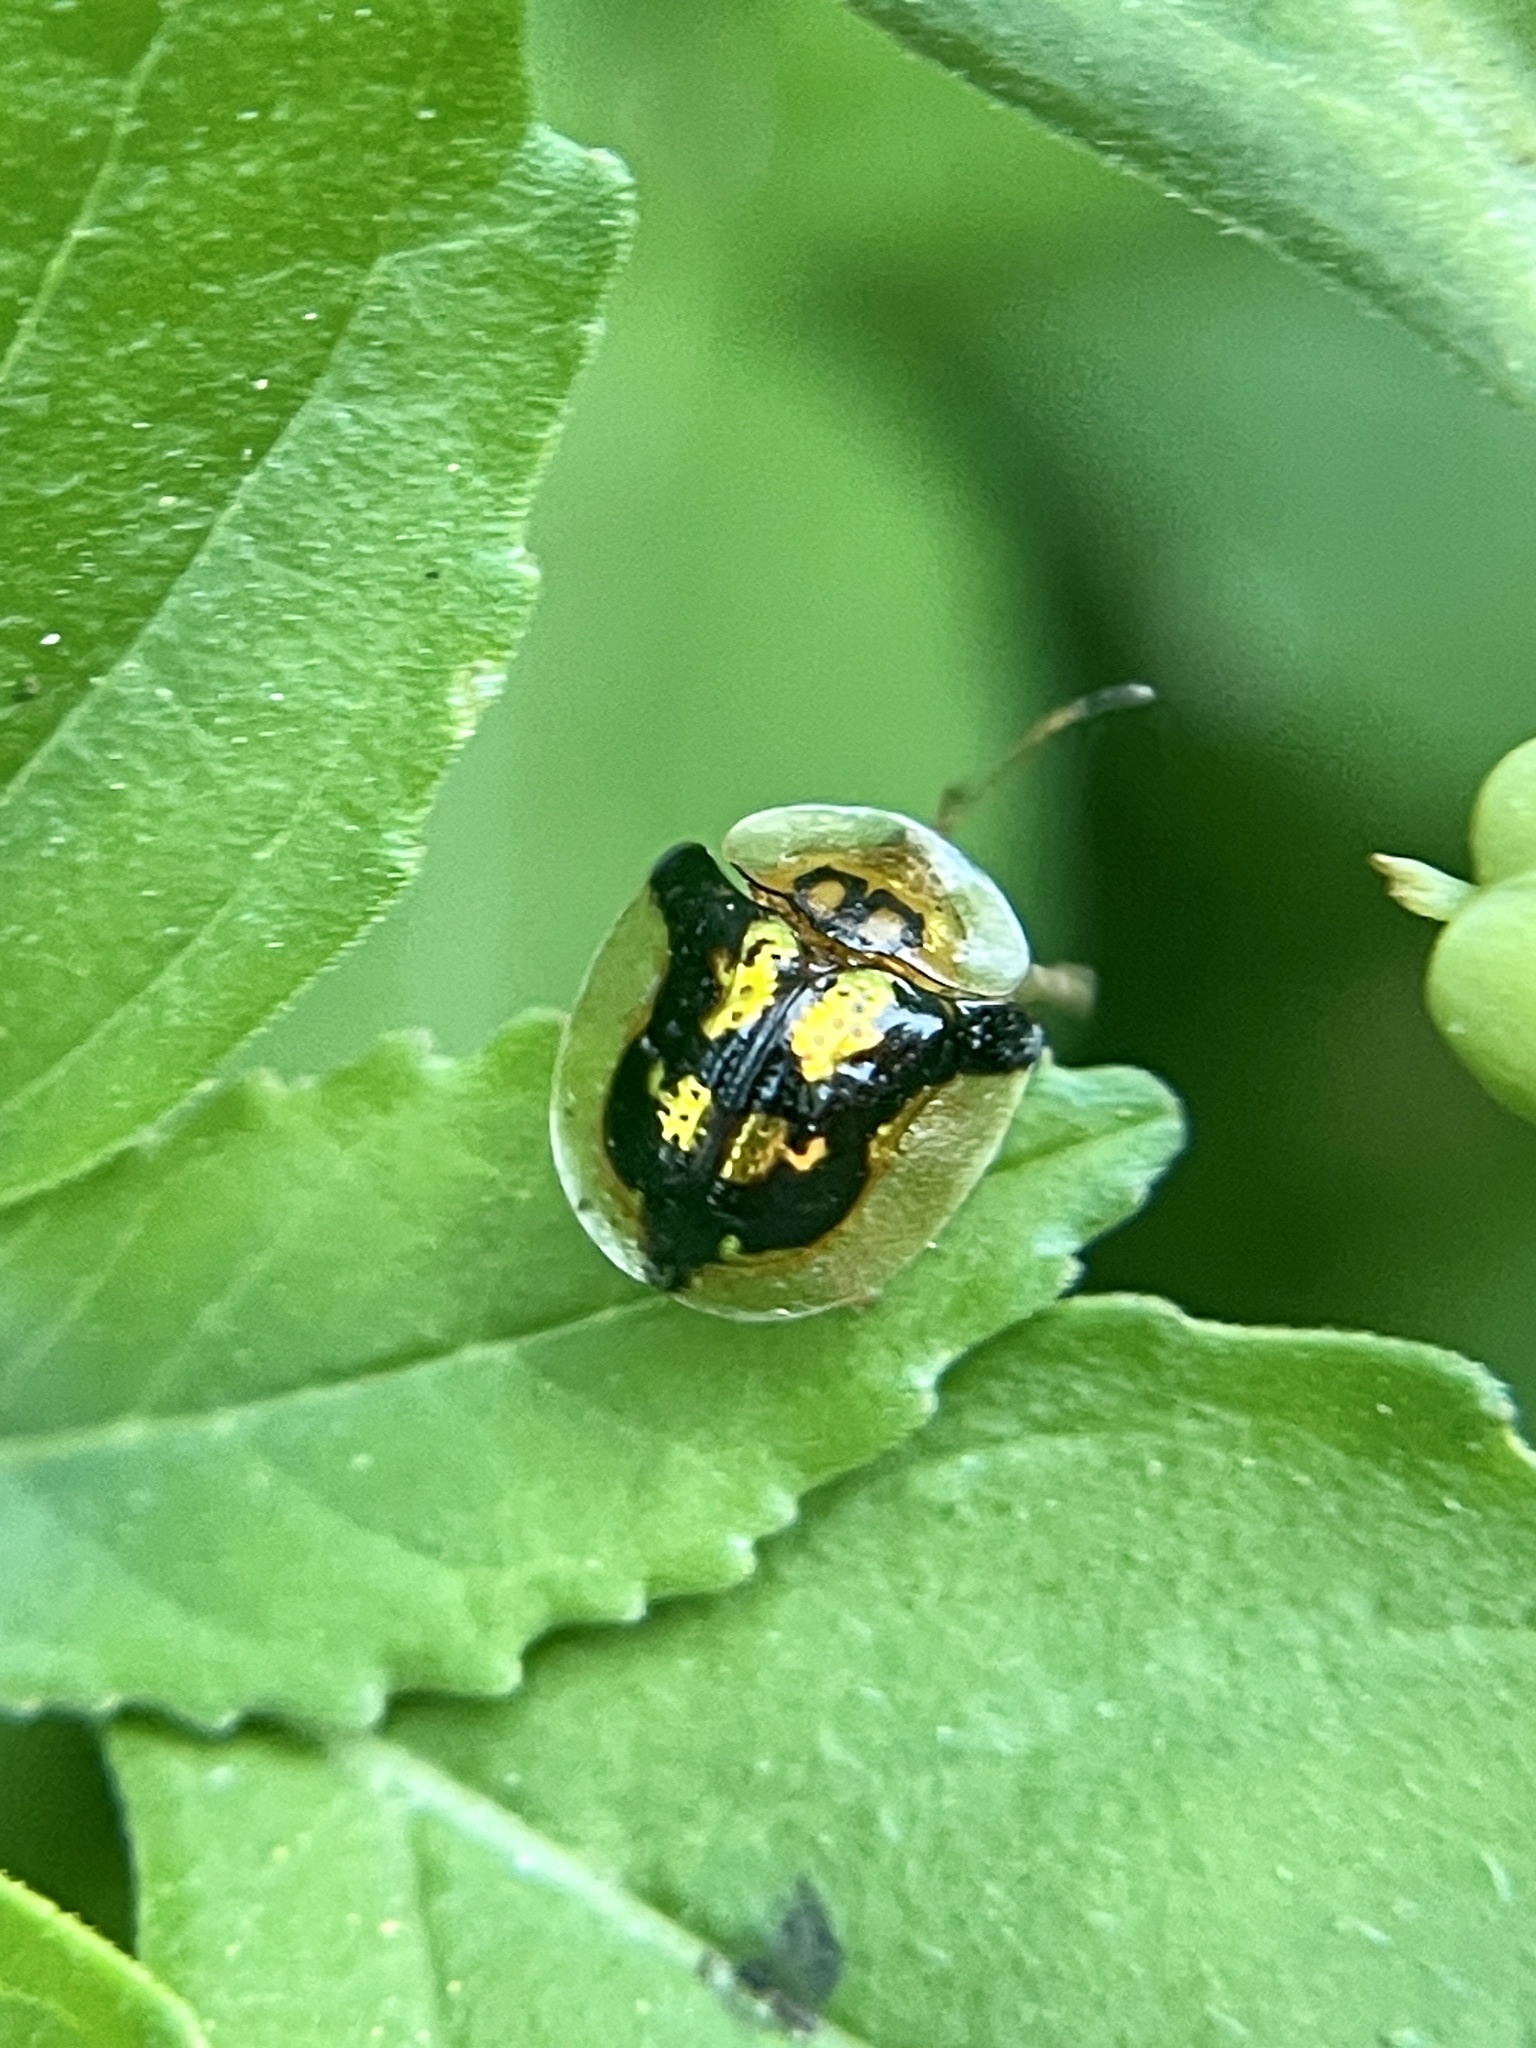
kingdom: Animalia
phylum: Arthropoda
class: Insecta
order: Coleoptera
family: Chrysomelidae
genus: Deloyala
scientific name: Deloyala guttata
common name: Mottled tortoise beetle
